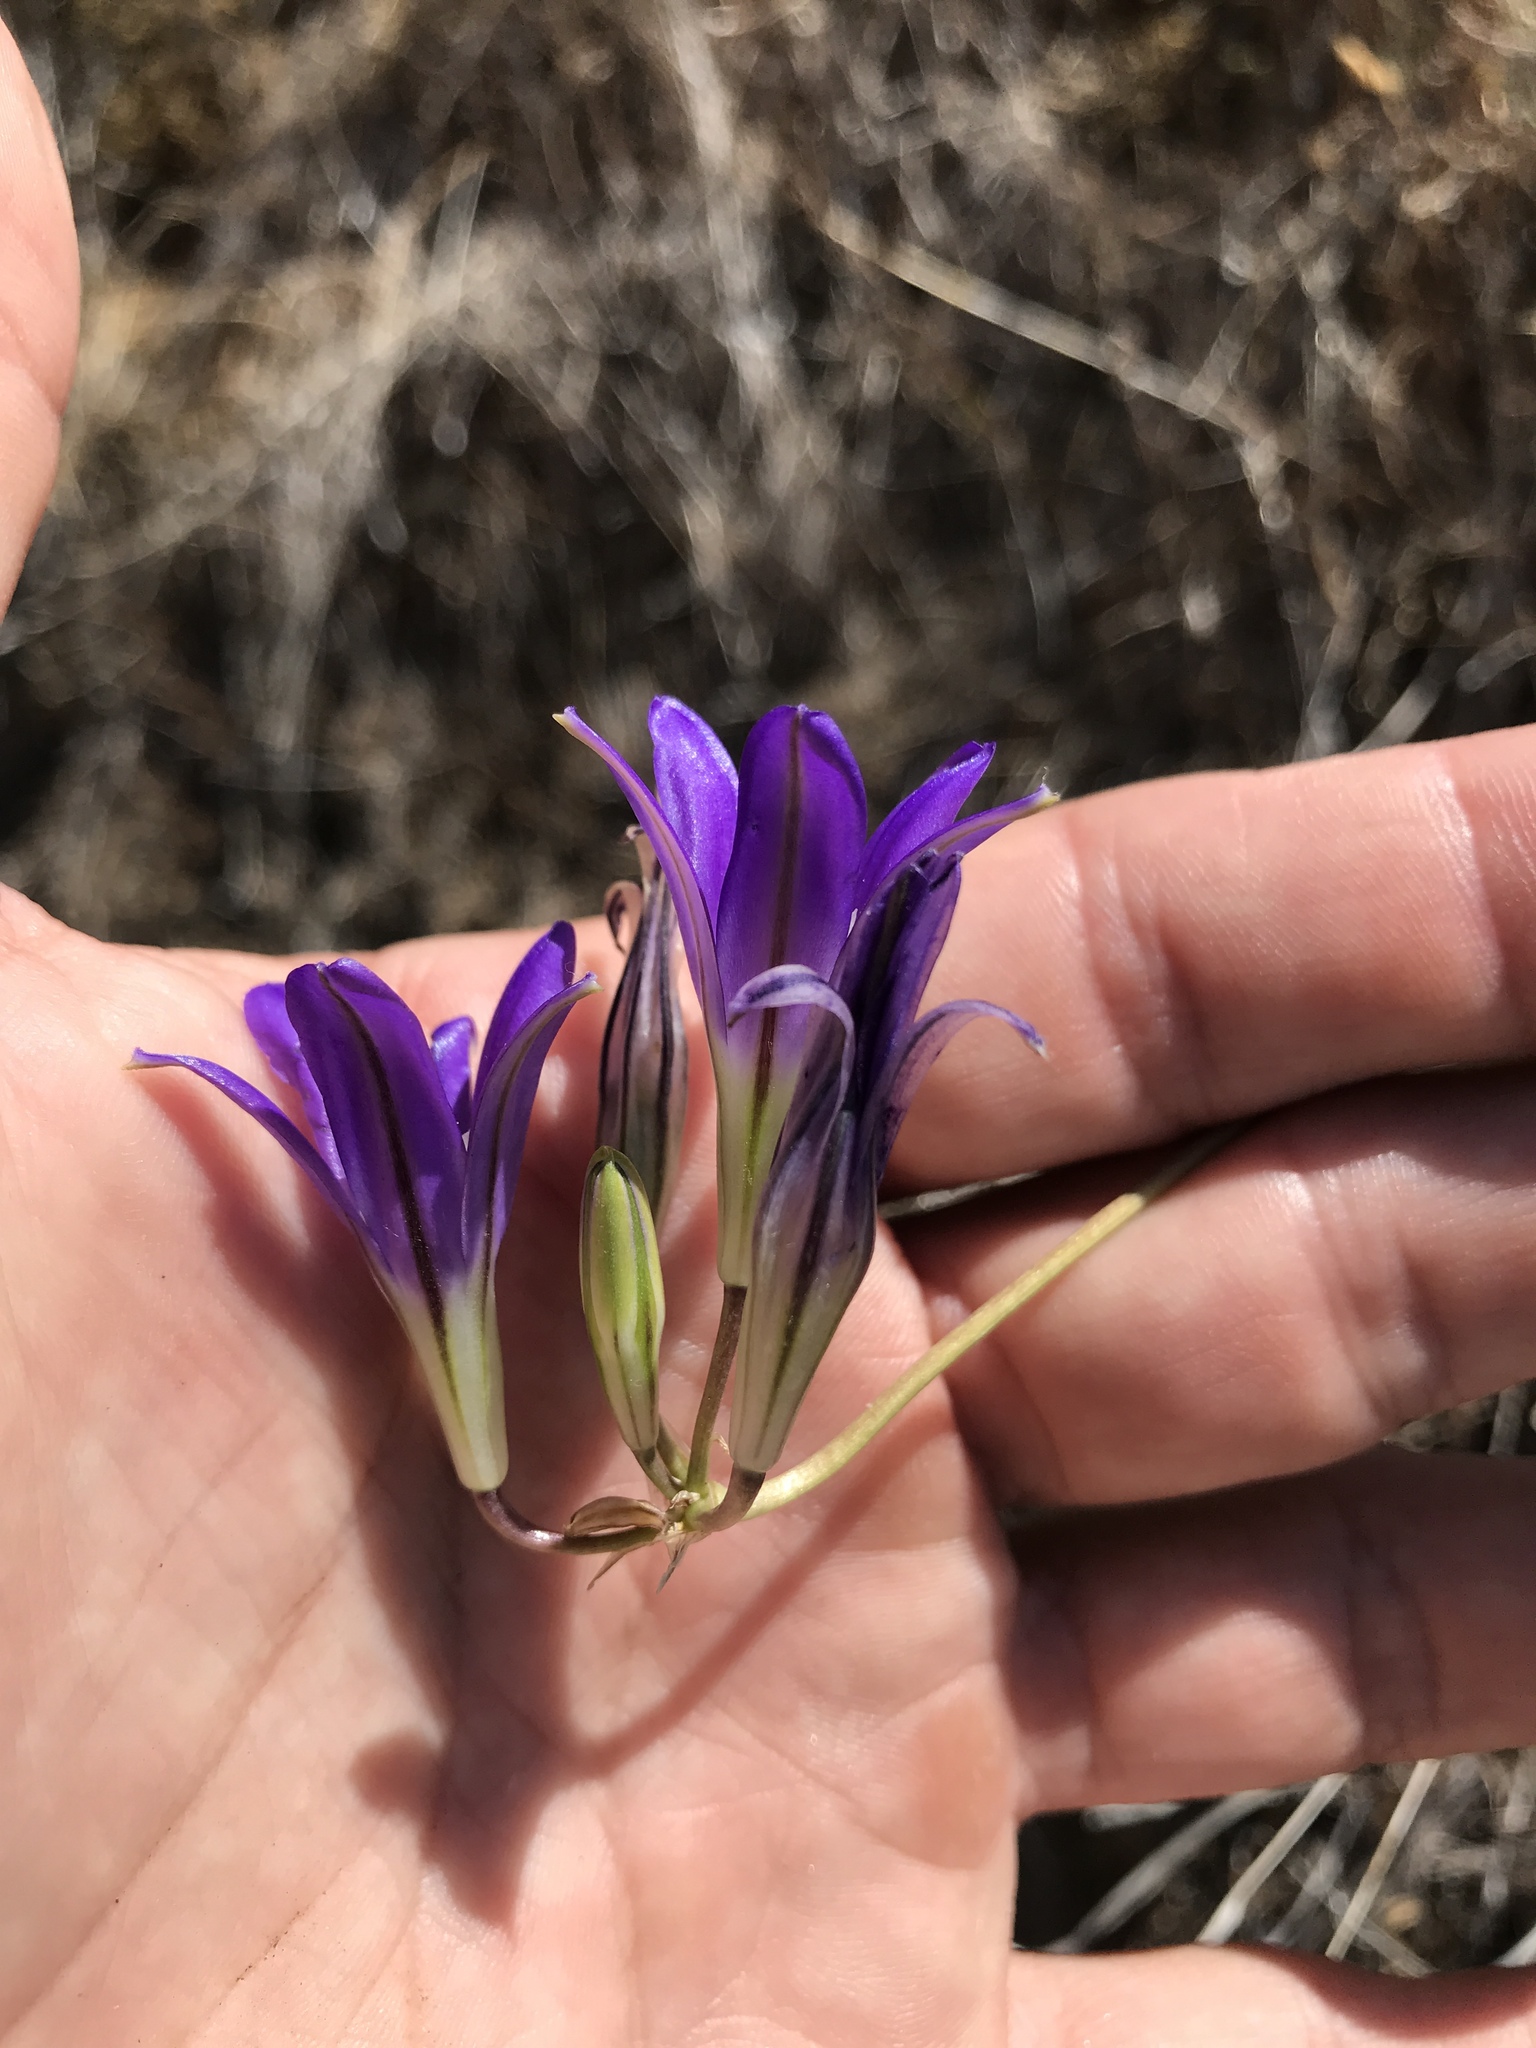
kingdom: Plantae
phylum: Tracheophyta
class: Liliopsida
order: Asparagales
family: Asparagaceae
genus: Brodiaea
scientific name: Brodiaea elegans
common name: Elegant cluster-lily
